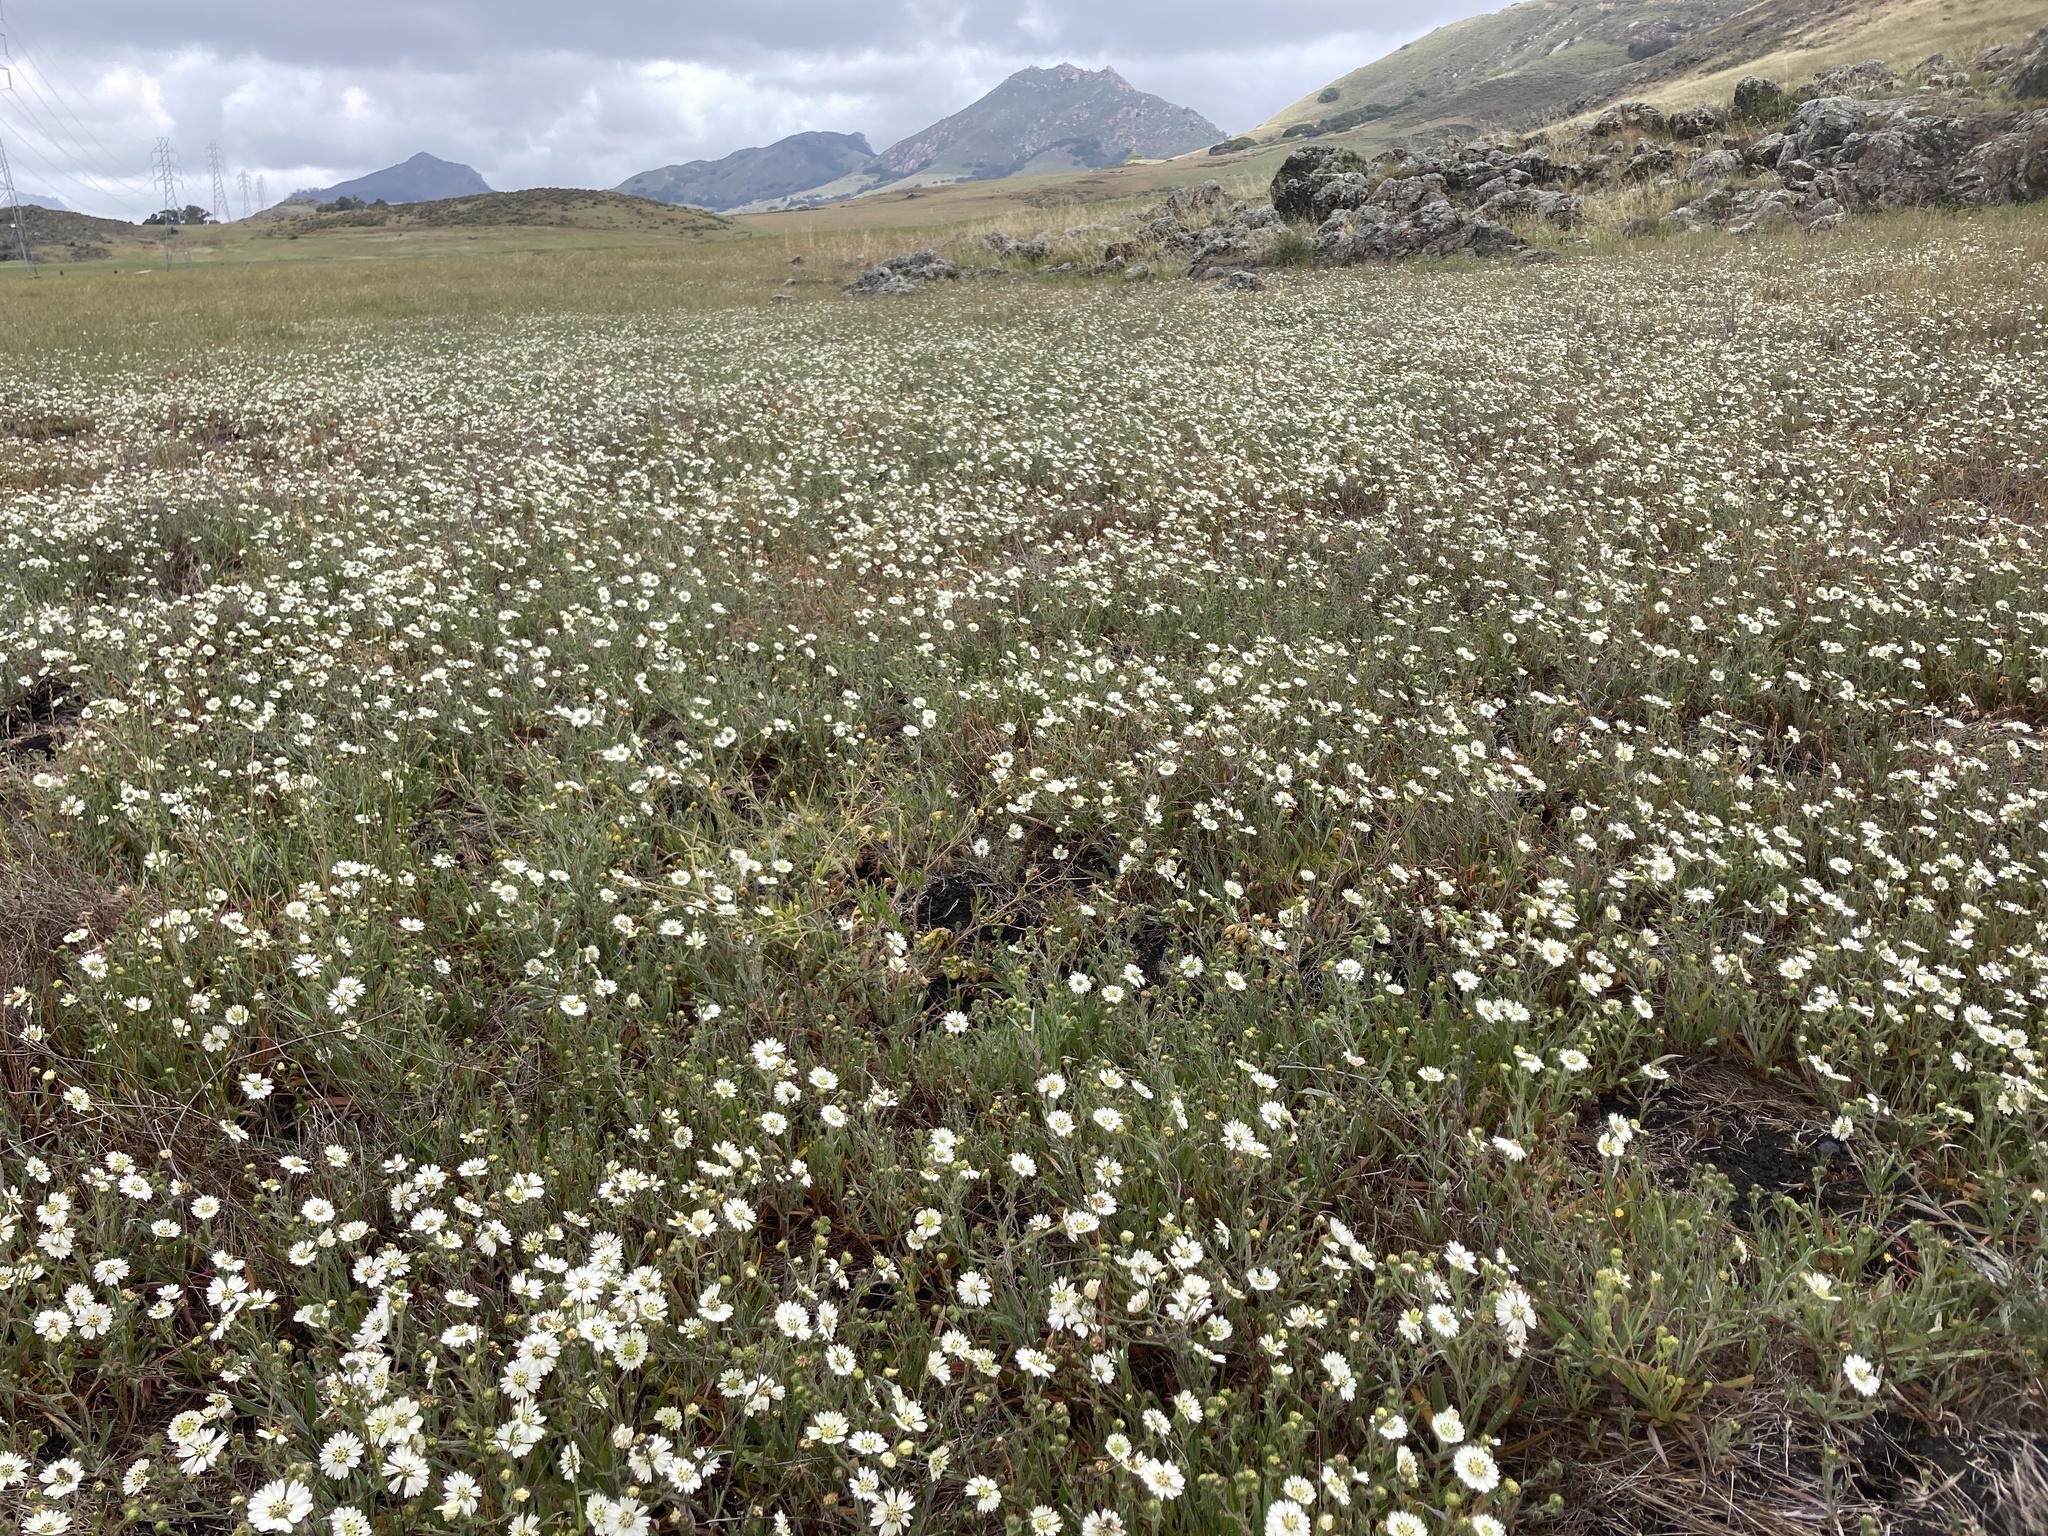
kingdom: Plantae
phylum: Tracheophyta
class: Magnoliopsida
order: Asterales
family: Asteraceae
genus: Hemizonia
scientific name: Hemizonia congesta
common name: Hayfield tarweed
